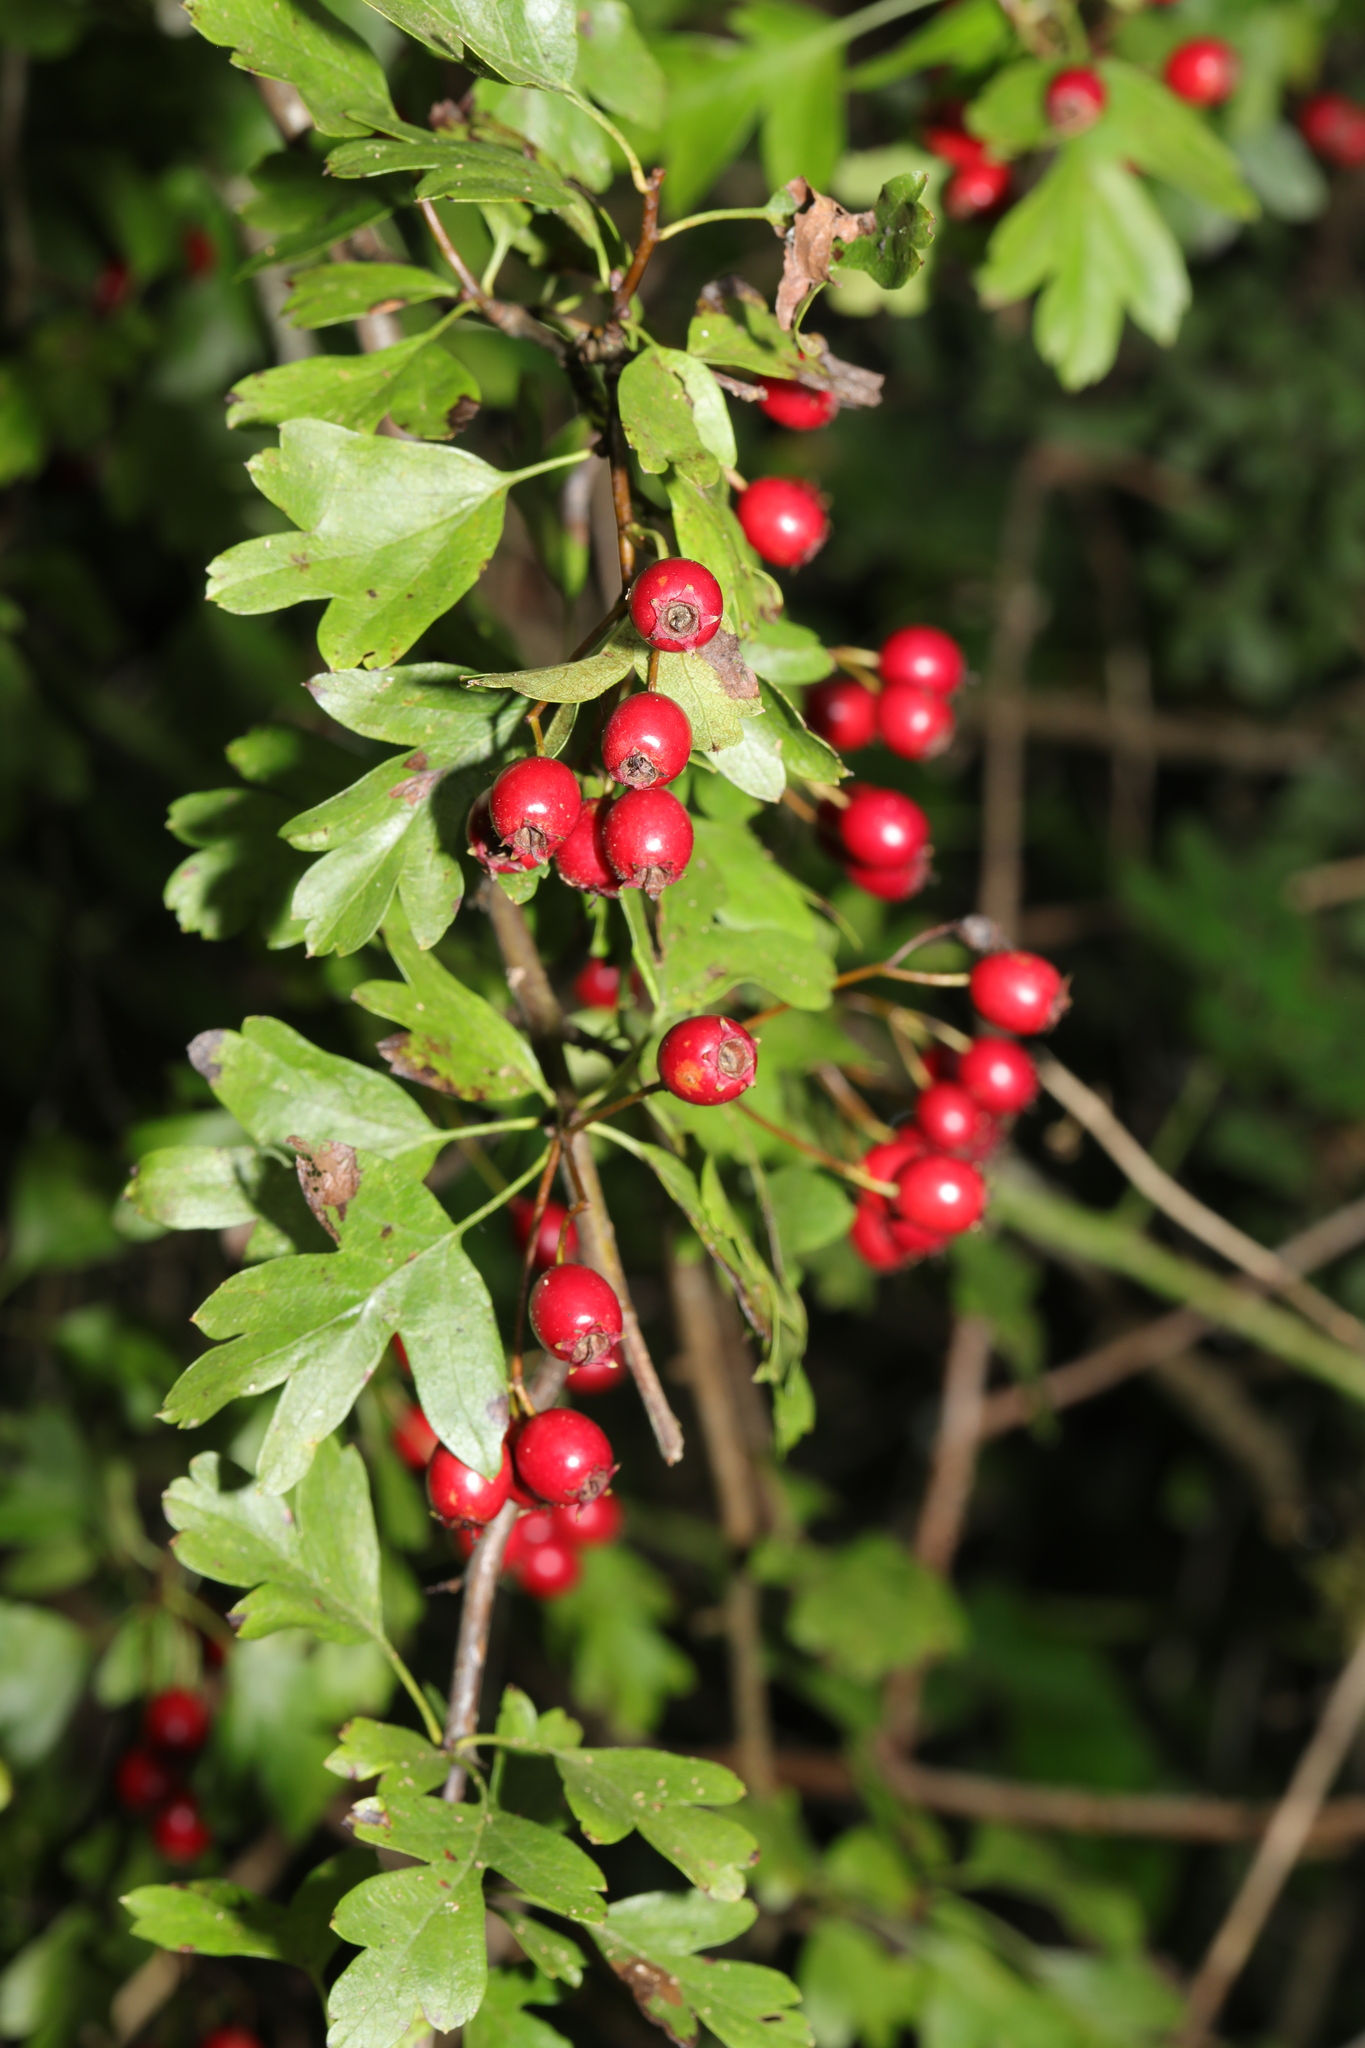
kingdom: Plantae
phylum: Tracheophyta
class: Magnoliopsida
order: Rosales
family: Rosaceae
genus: Crataegus
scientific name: Crataegus monogyna
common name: Hawthorn
